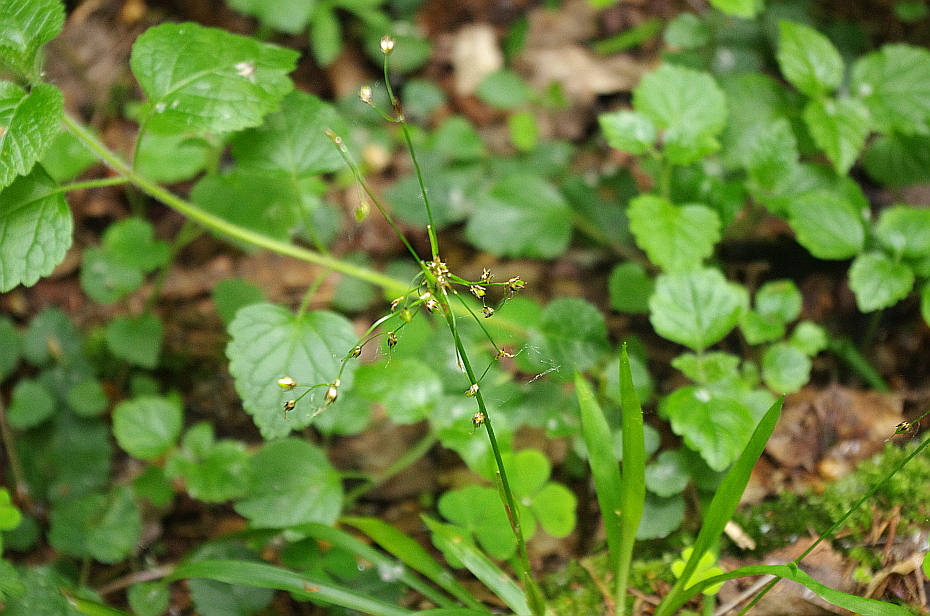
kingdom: Plantae
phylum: Tracheophyta
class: Liliopsida
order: Poales
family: Juncaceae
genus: Luzula
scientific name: Luzula pilosa
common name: Hairy wood-rush
